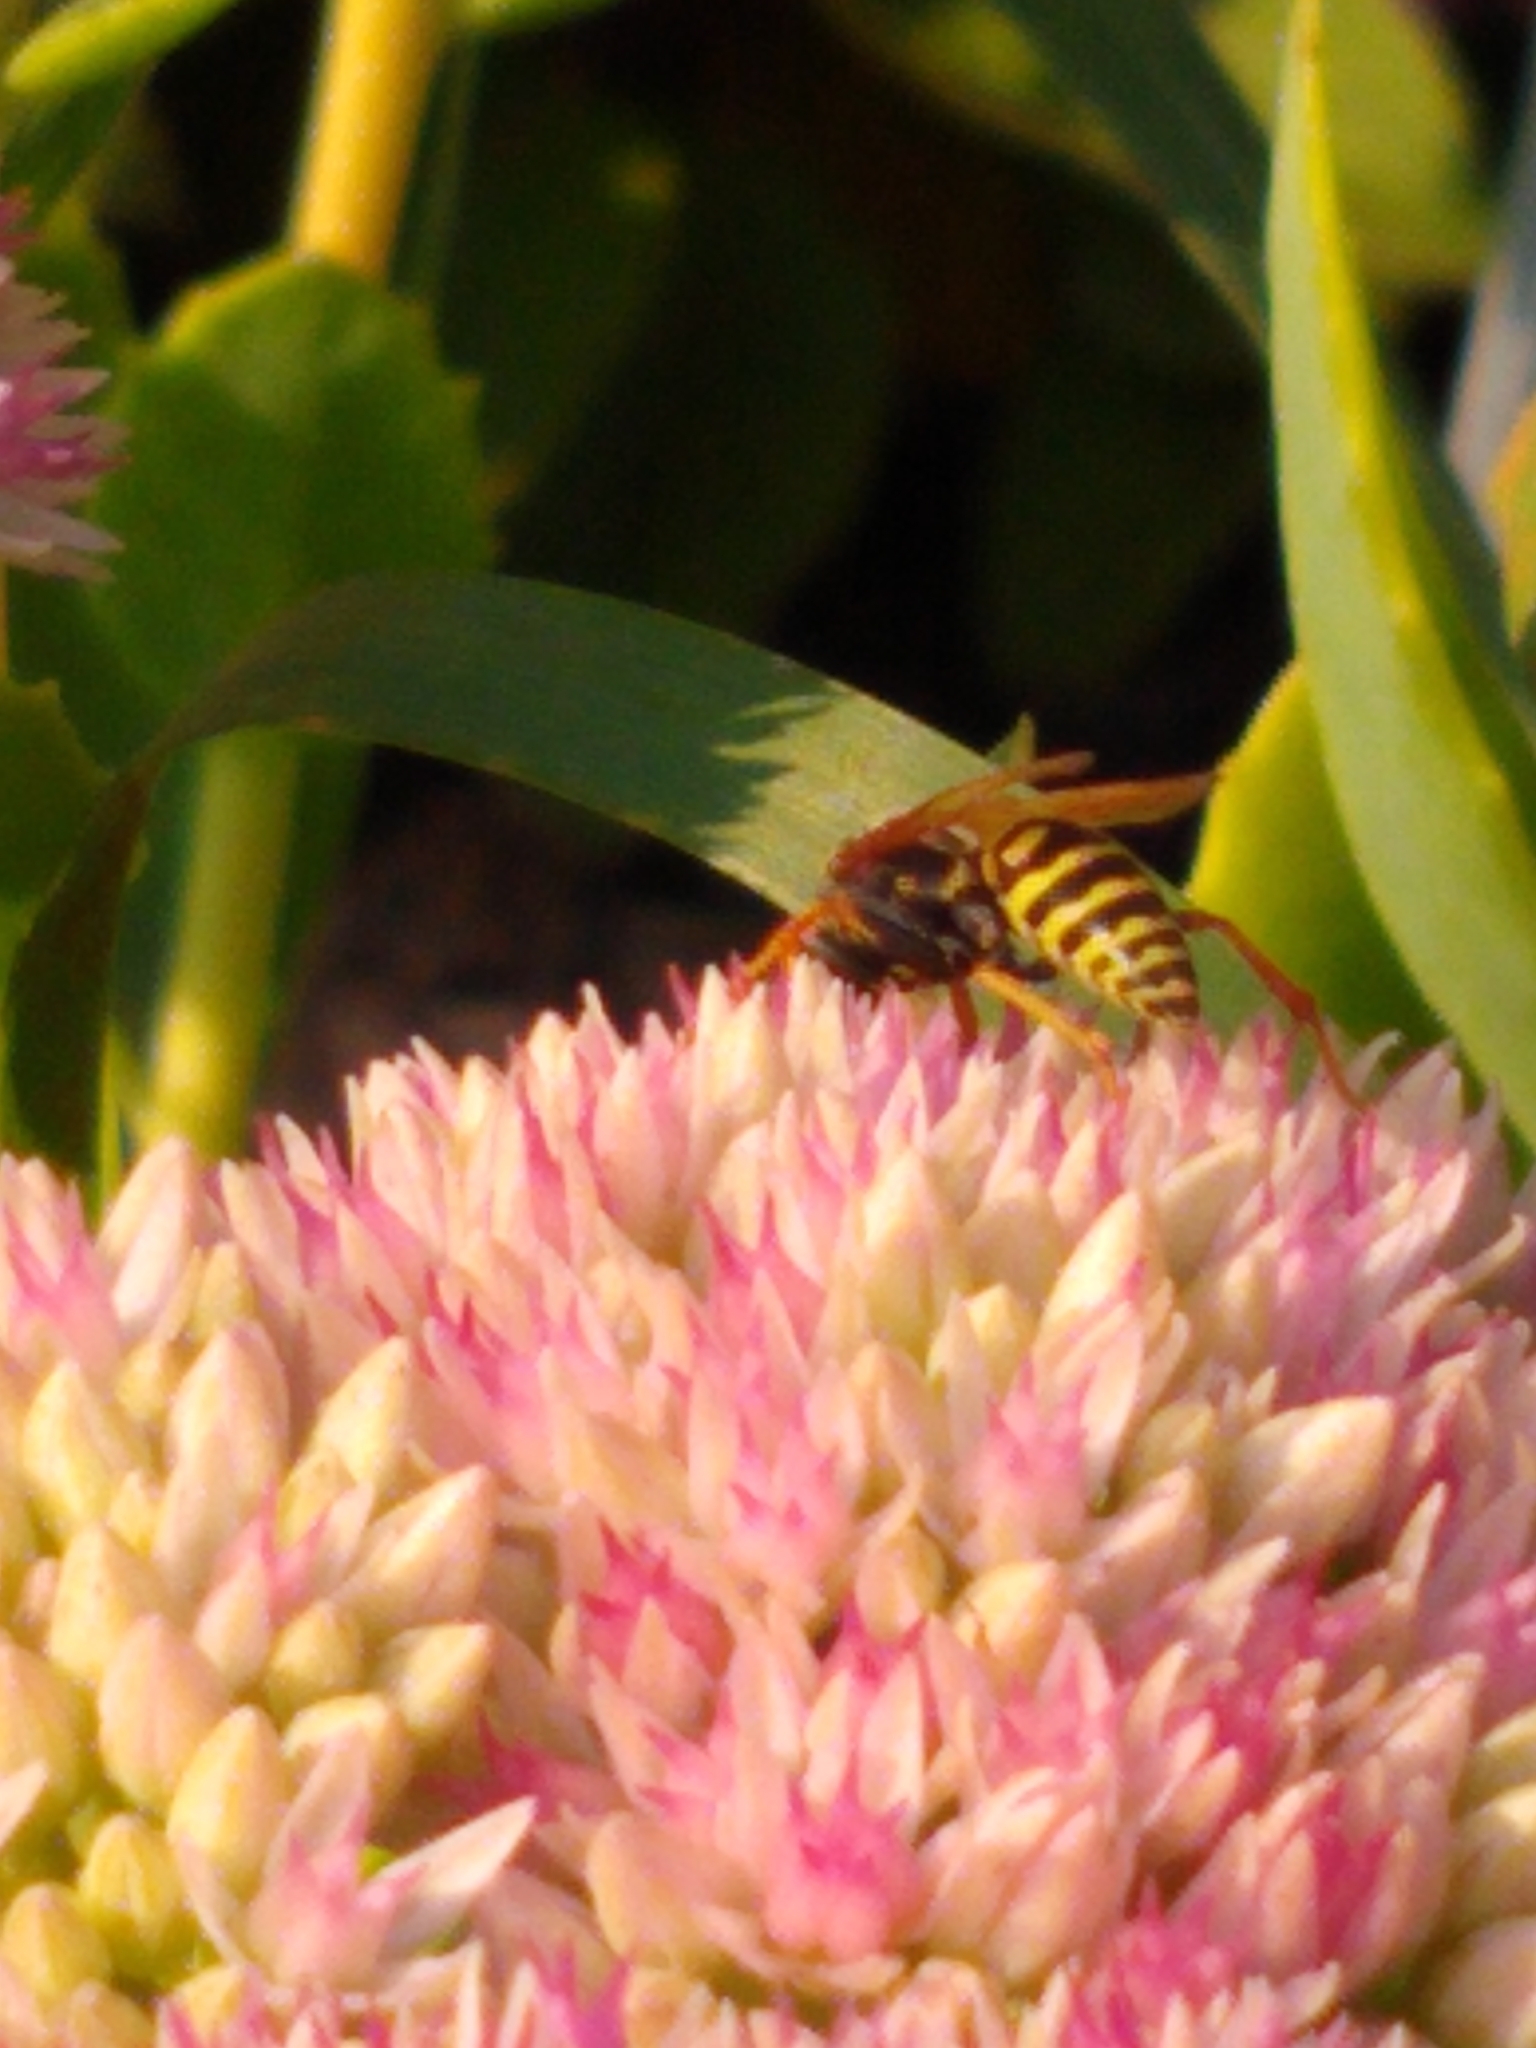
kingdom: Animalia
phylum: Arthropoda
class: Insecta
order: Hymenoptera
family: Eumenidae
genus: Polistes
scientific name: Polistes dominula
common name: Paper wasp
